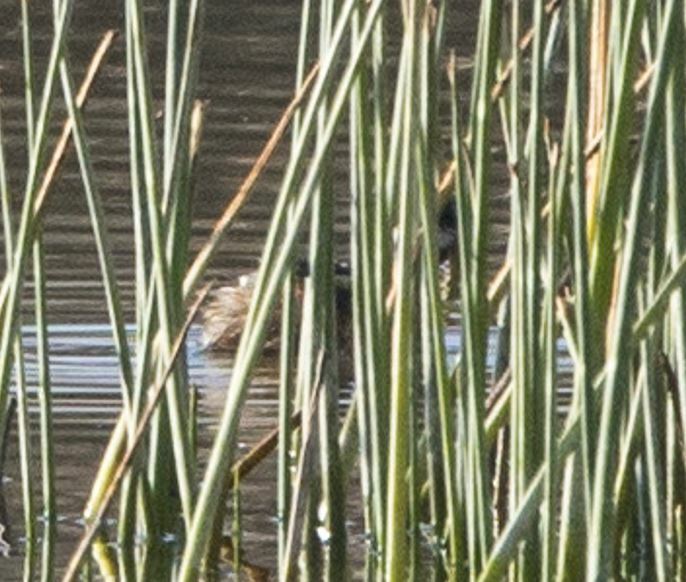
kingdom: Animalia
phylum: Chordata
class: Aves
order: Podicipediformes
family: Podicipedidae
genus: Rollandia
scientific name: Rollandia rolland
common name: White-tufted grebe
